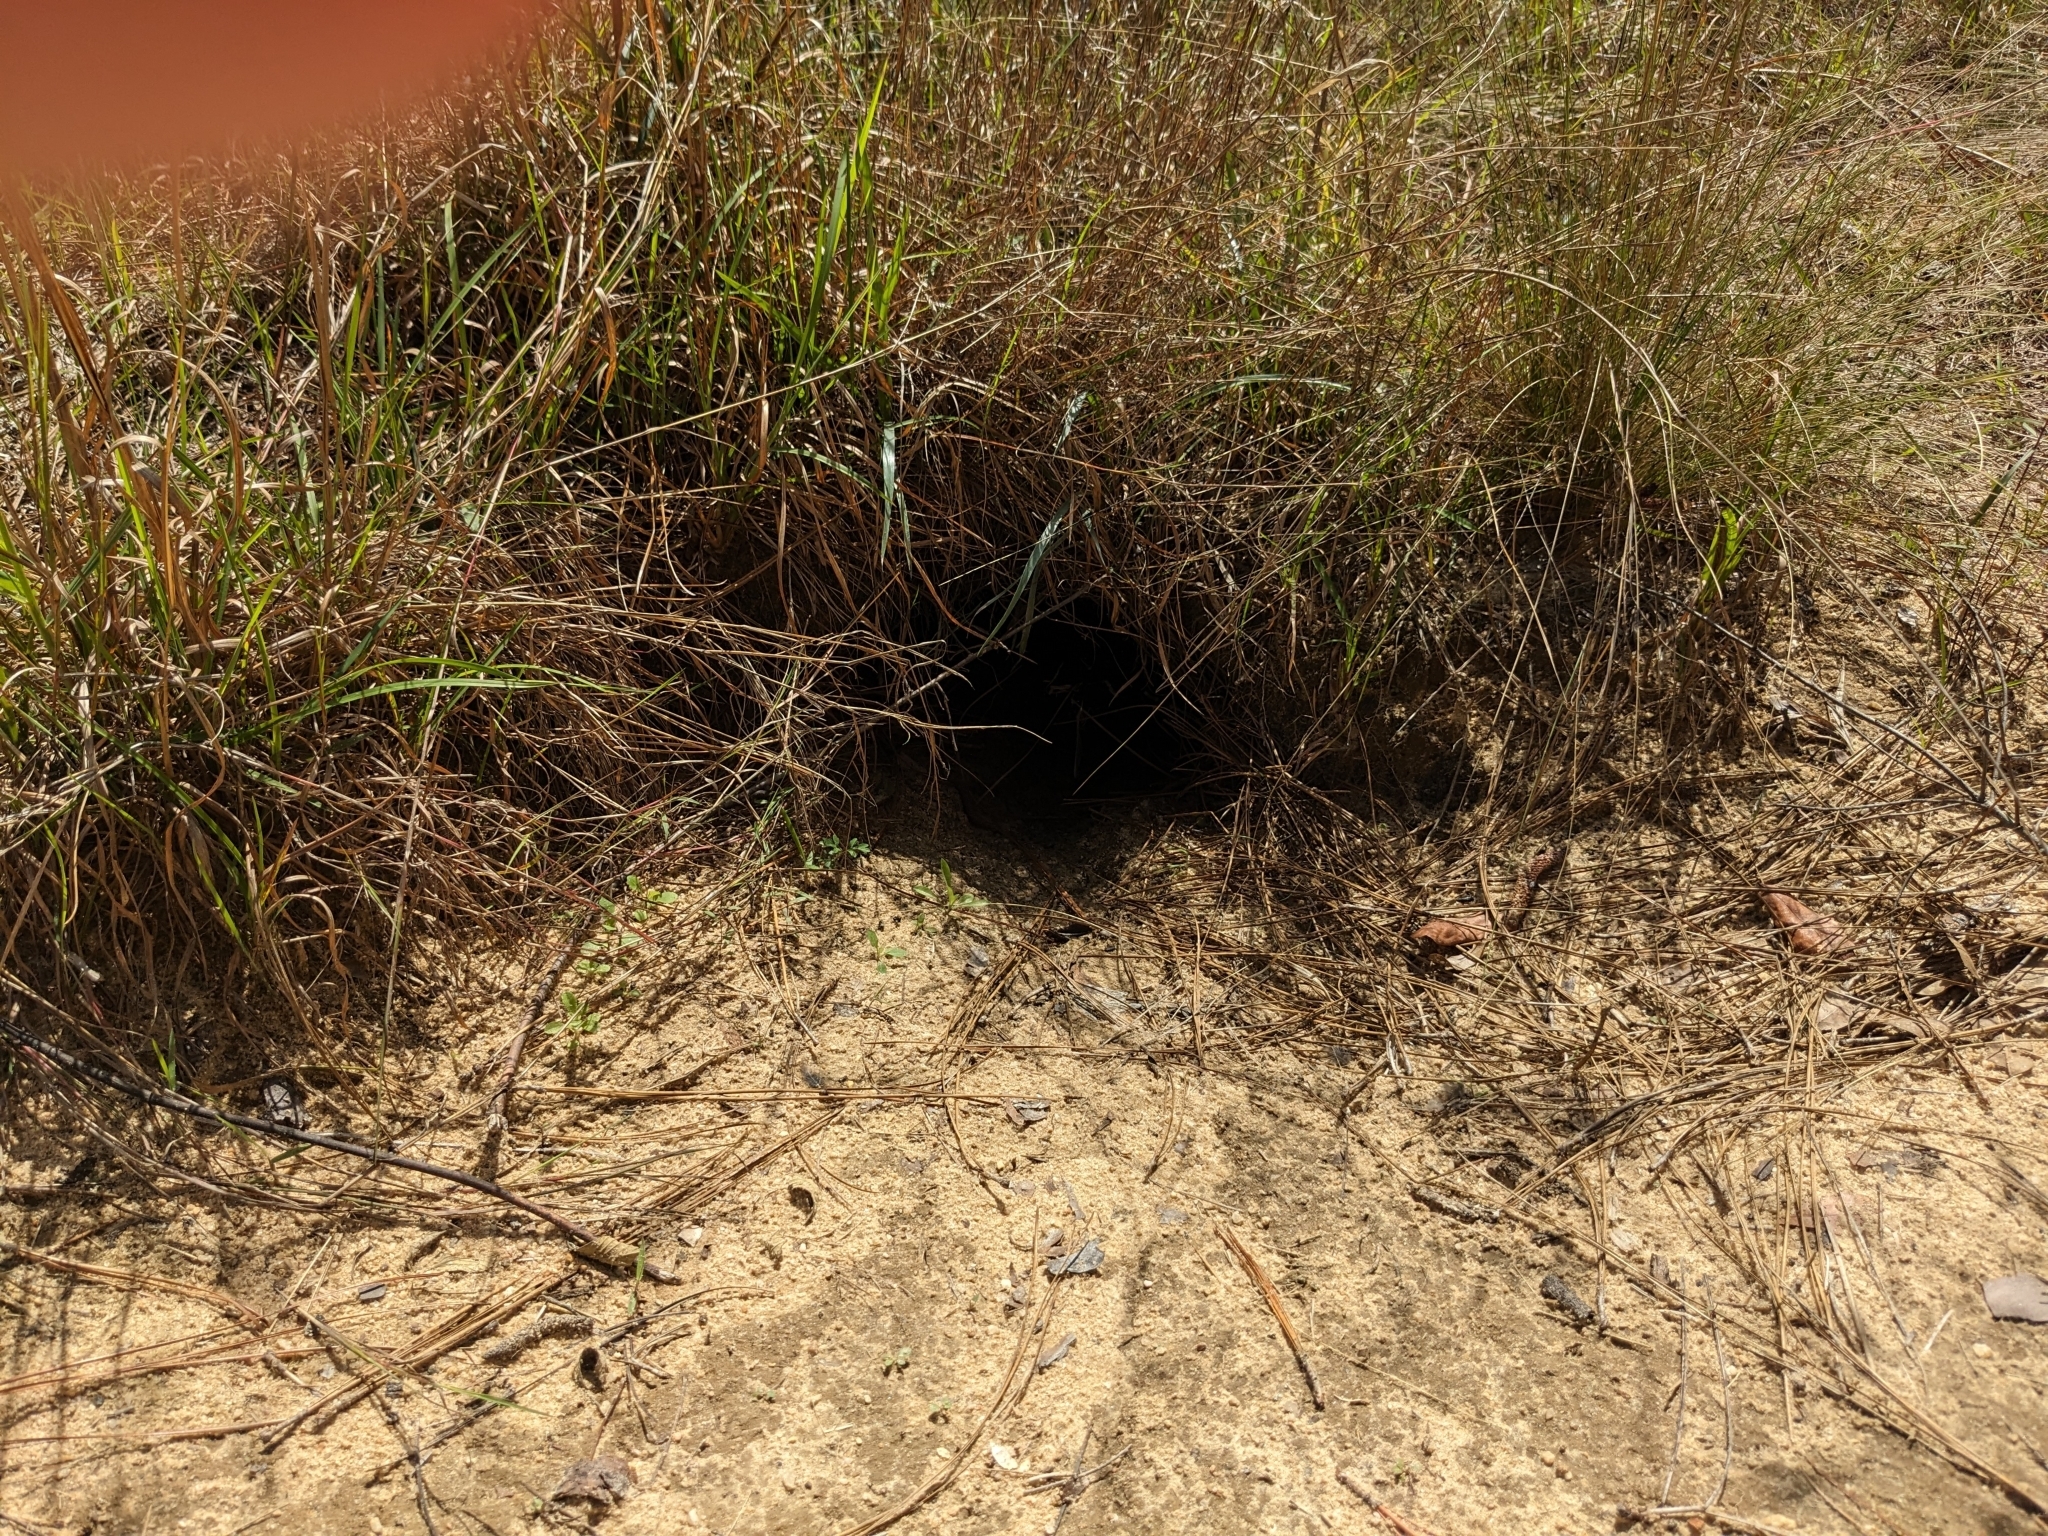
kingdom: Animalia
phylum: Chordata
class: Testudines
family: Testudinidae
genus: Gopherus
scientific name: Gopherus polyphemus
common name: Florida gopher tortoise
